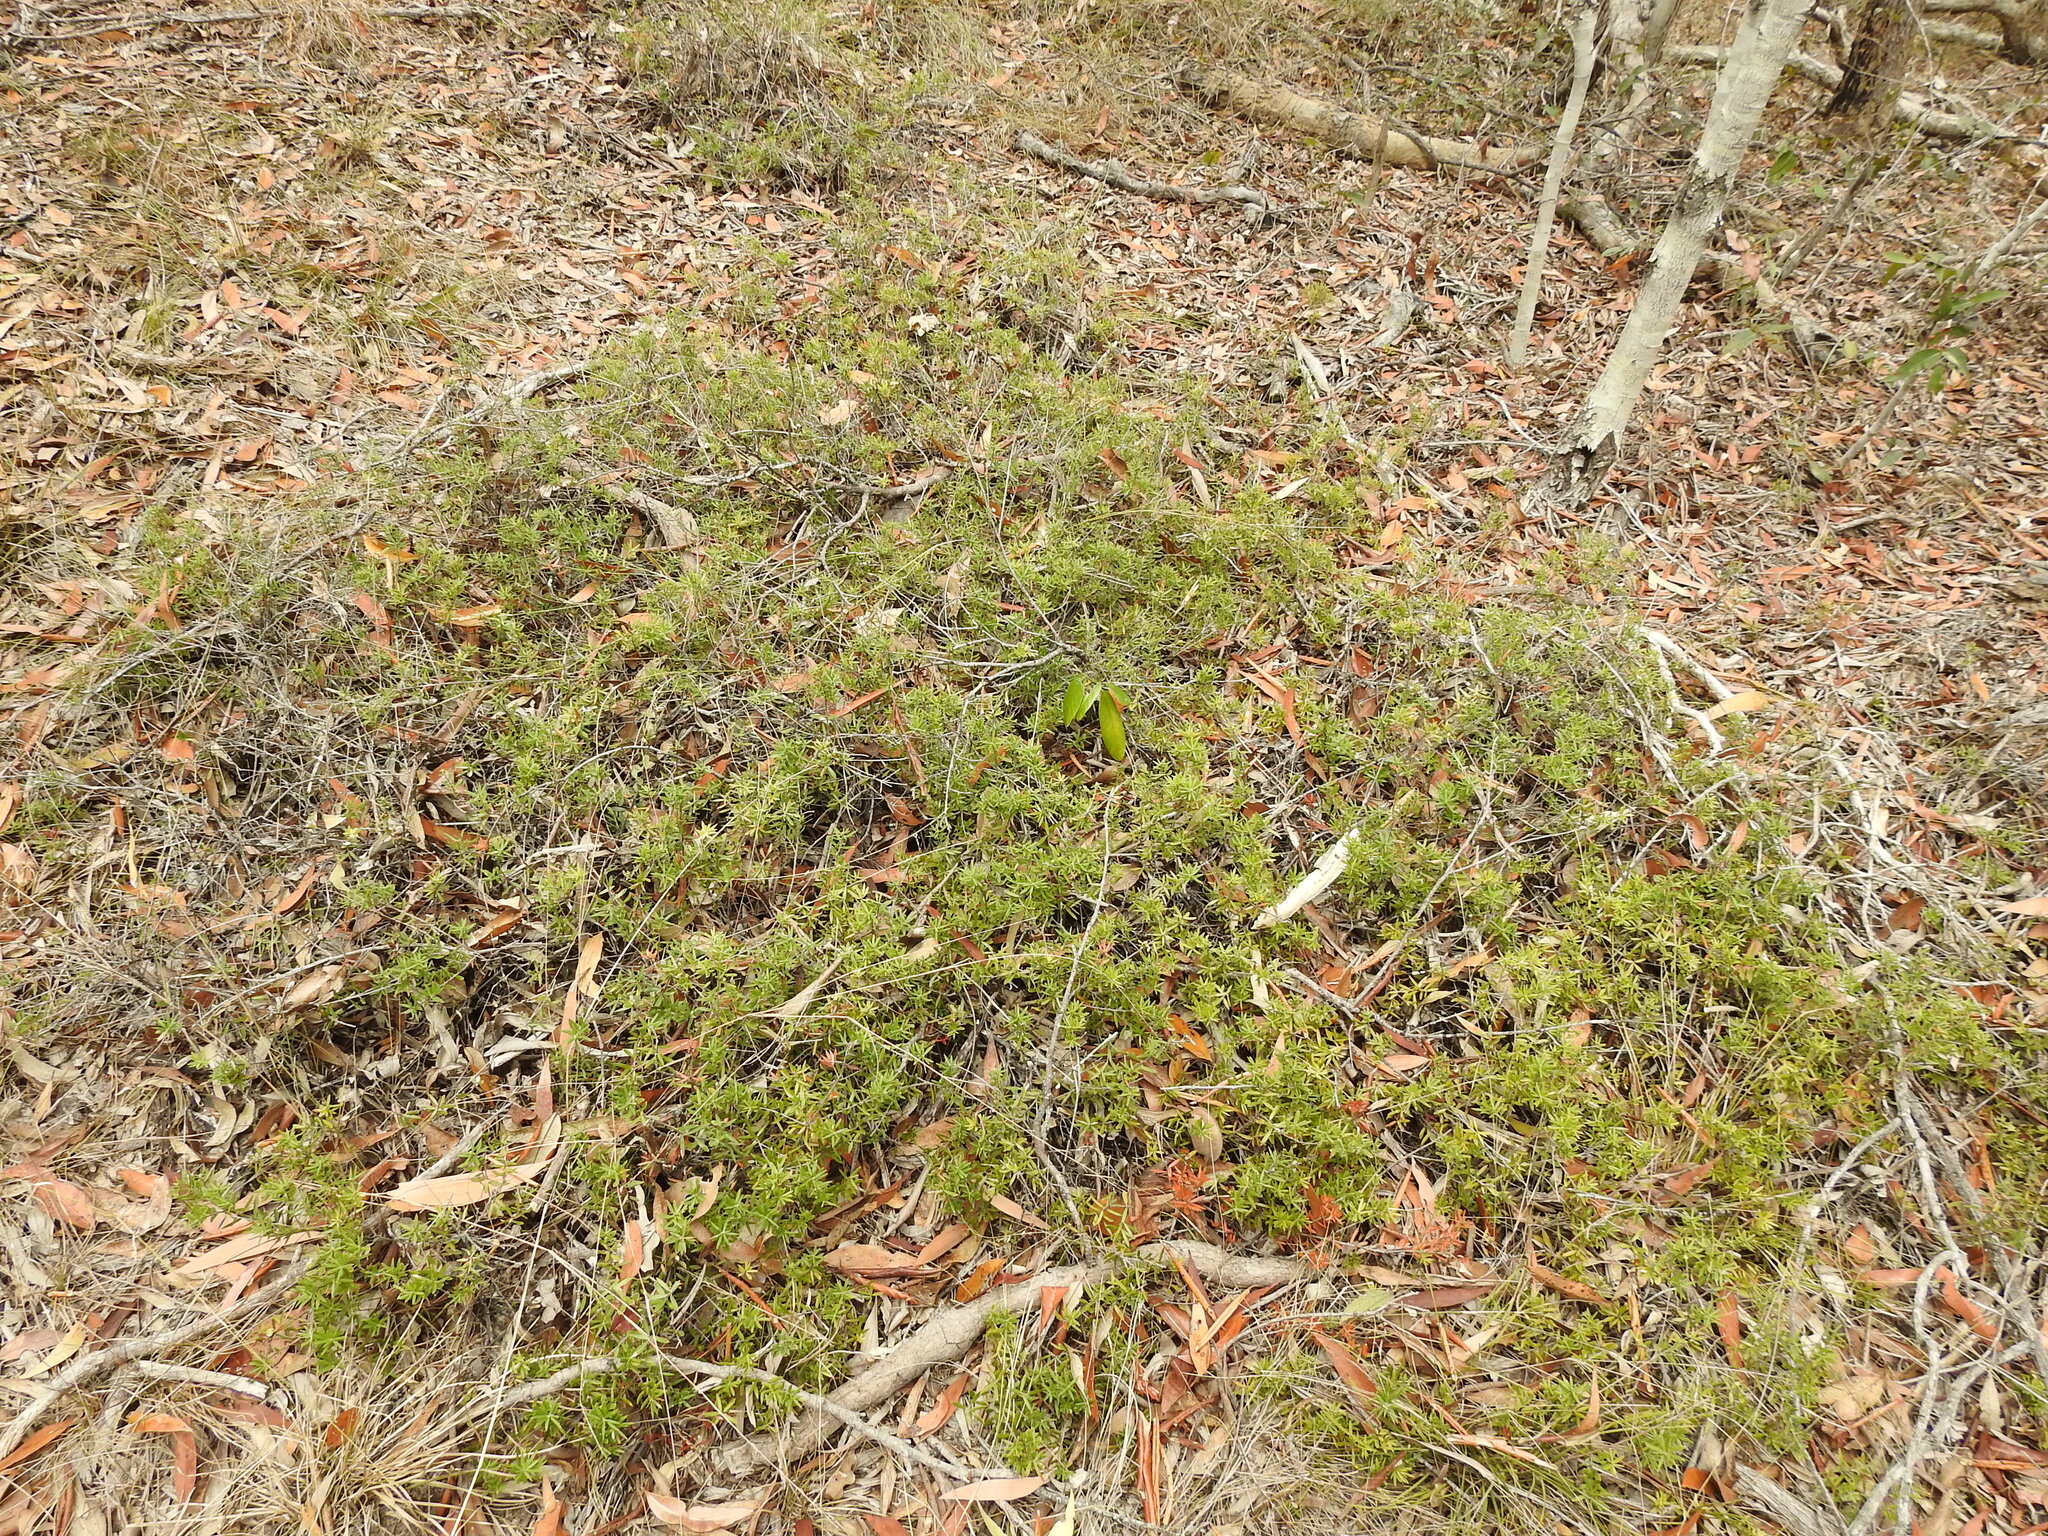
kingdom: Plantae
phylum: Tracheophyta
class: Magnoliopsida
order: Ericales
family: Ericaceae
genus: Acrotriche
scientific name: Acrotriche aggregata
